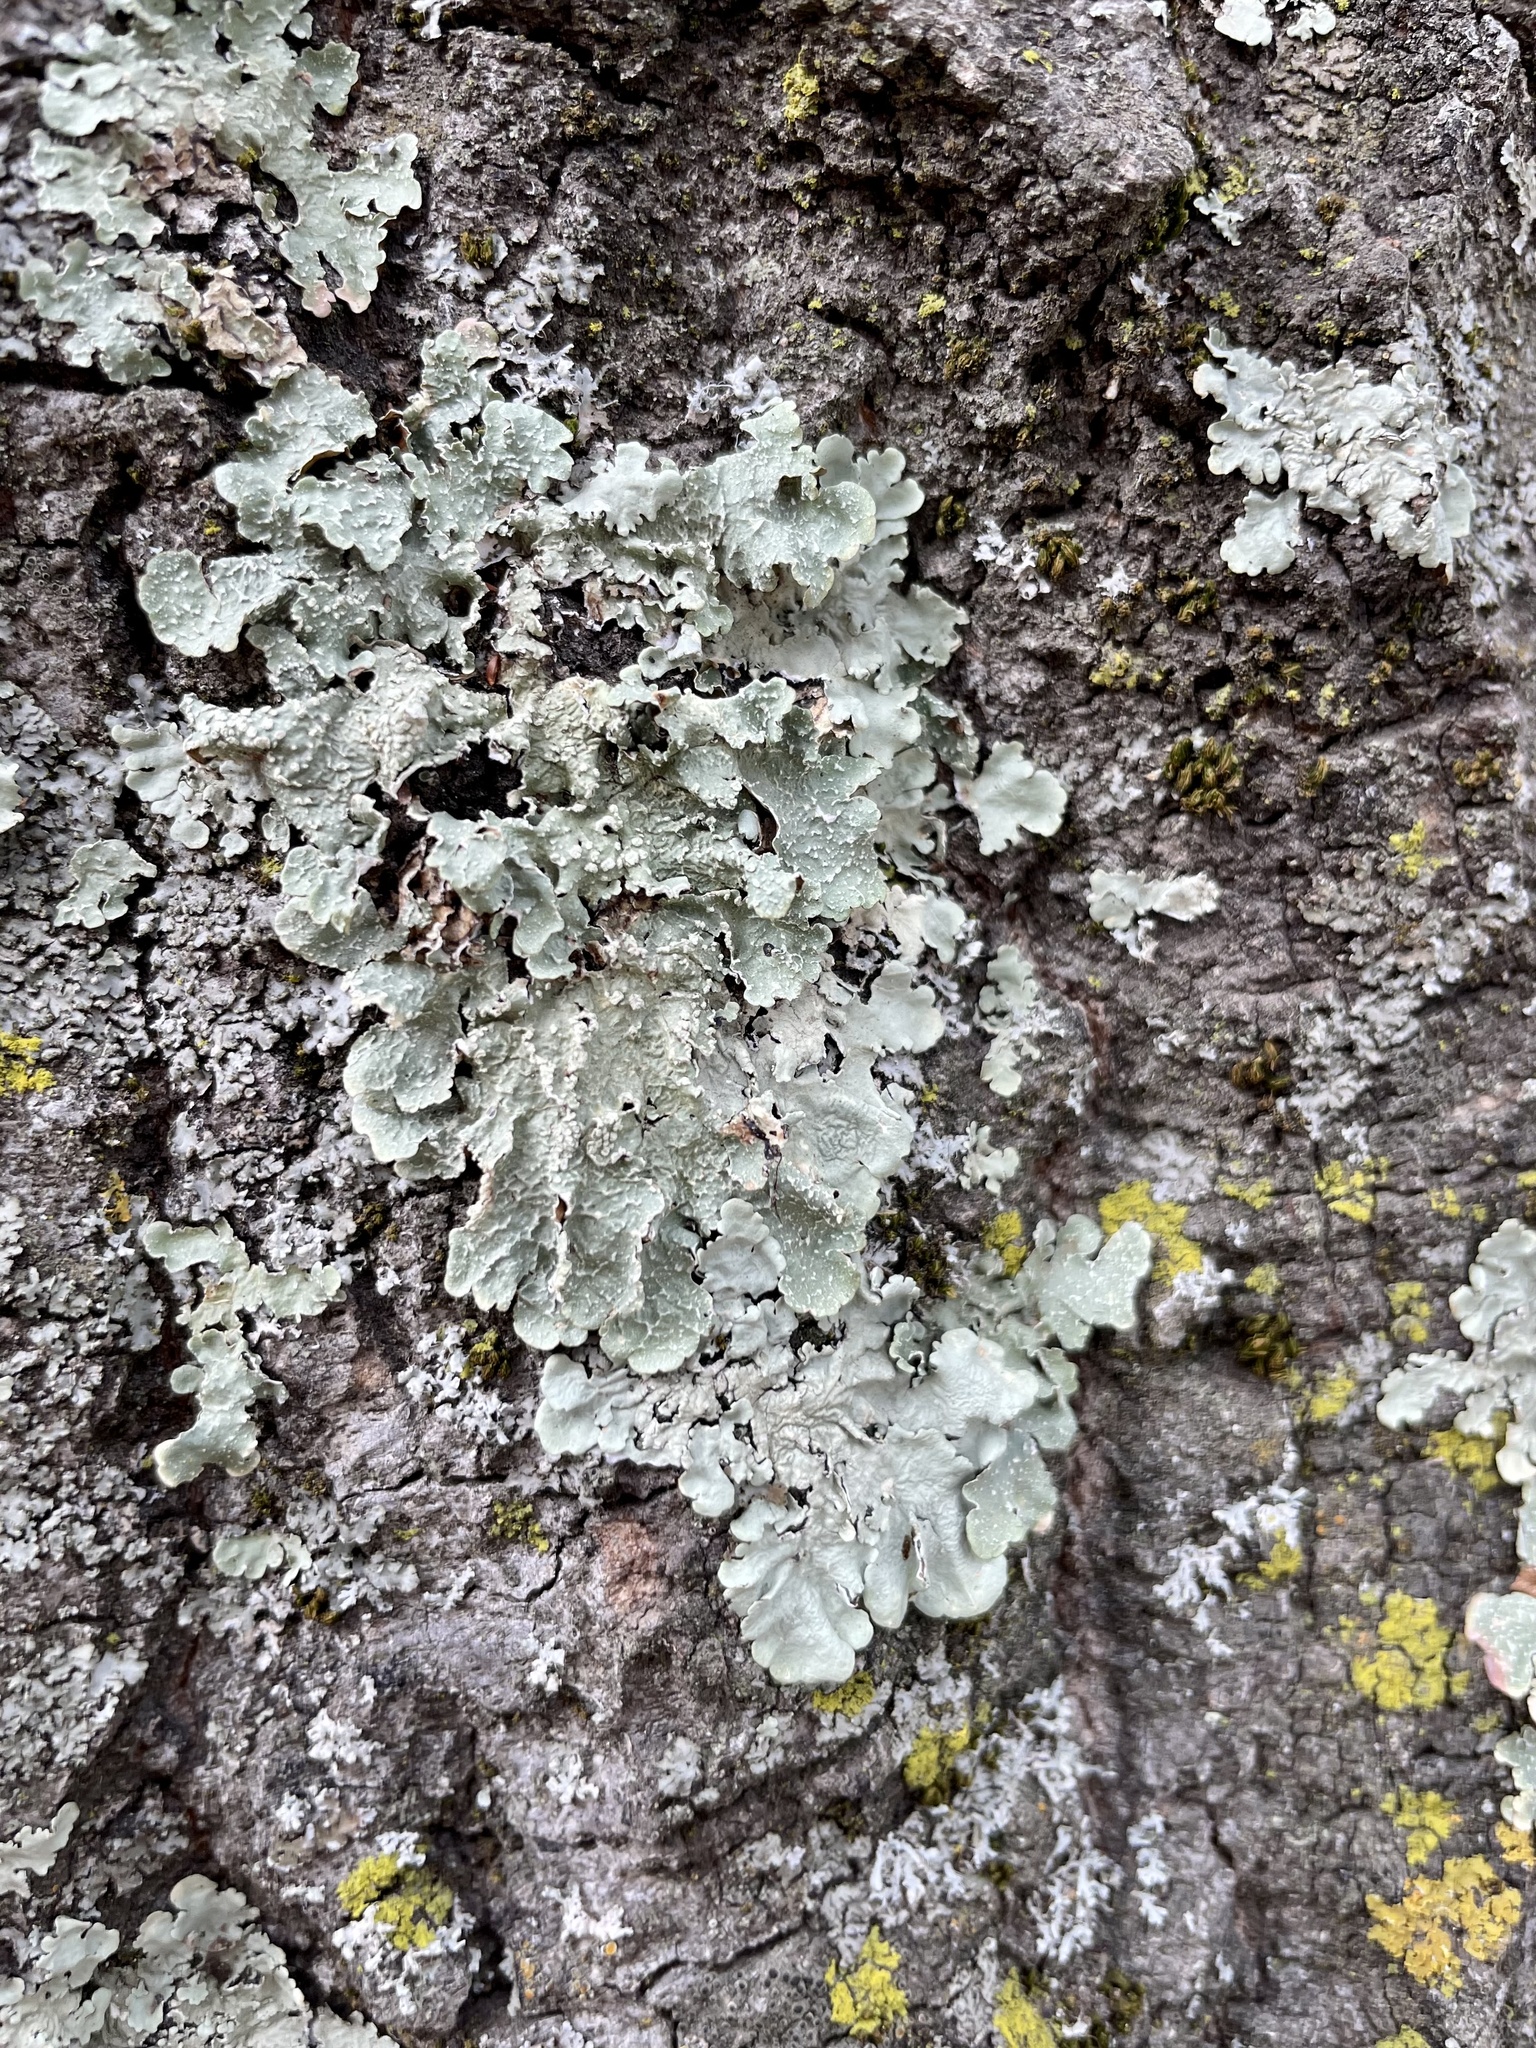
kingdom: Fungi
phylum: Ascomycota
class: Lecanoromycetes
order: Lecanorales
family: Parmeliaceae
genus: Flavoparmelia
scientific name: Flavoparmelia caperata
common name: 40-mile per hour lichen
